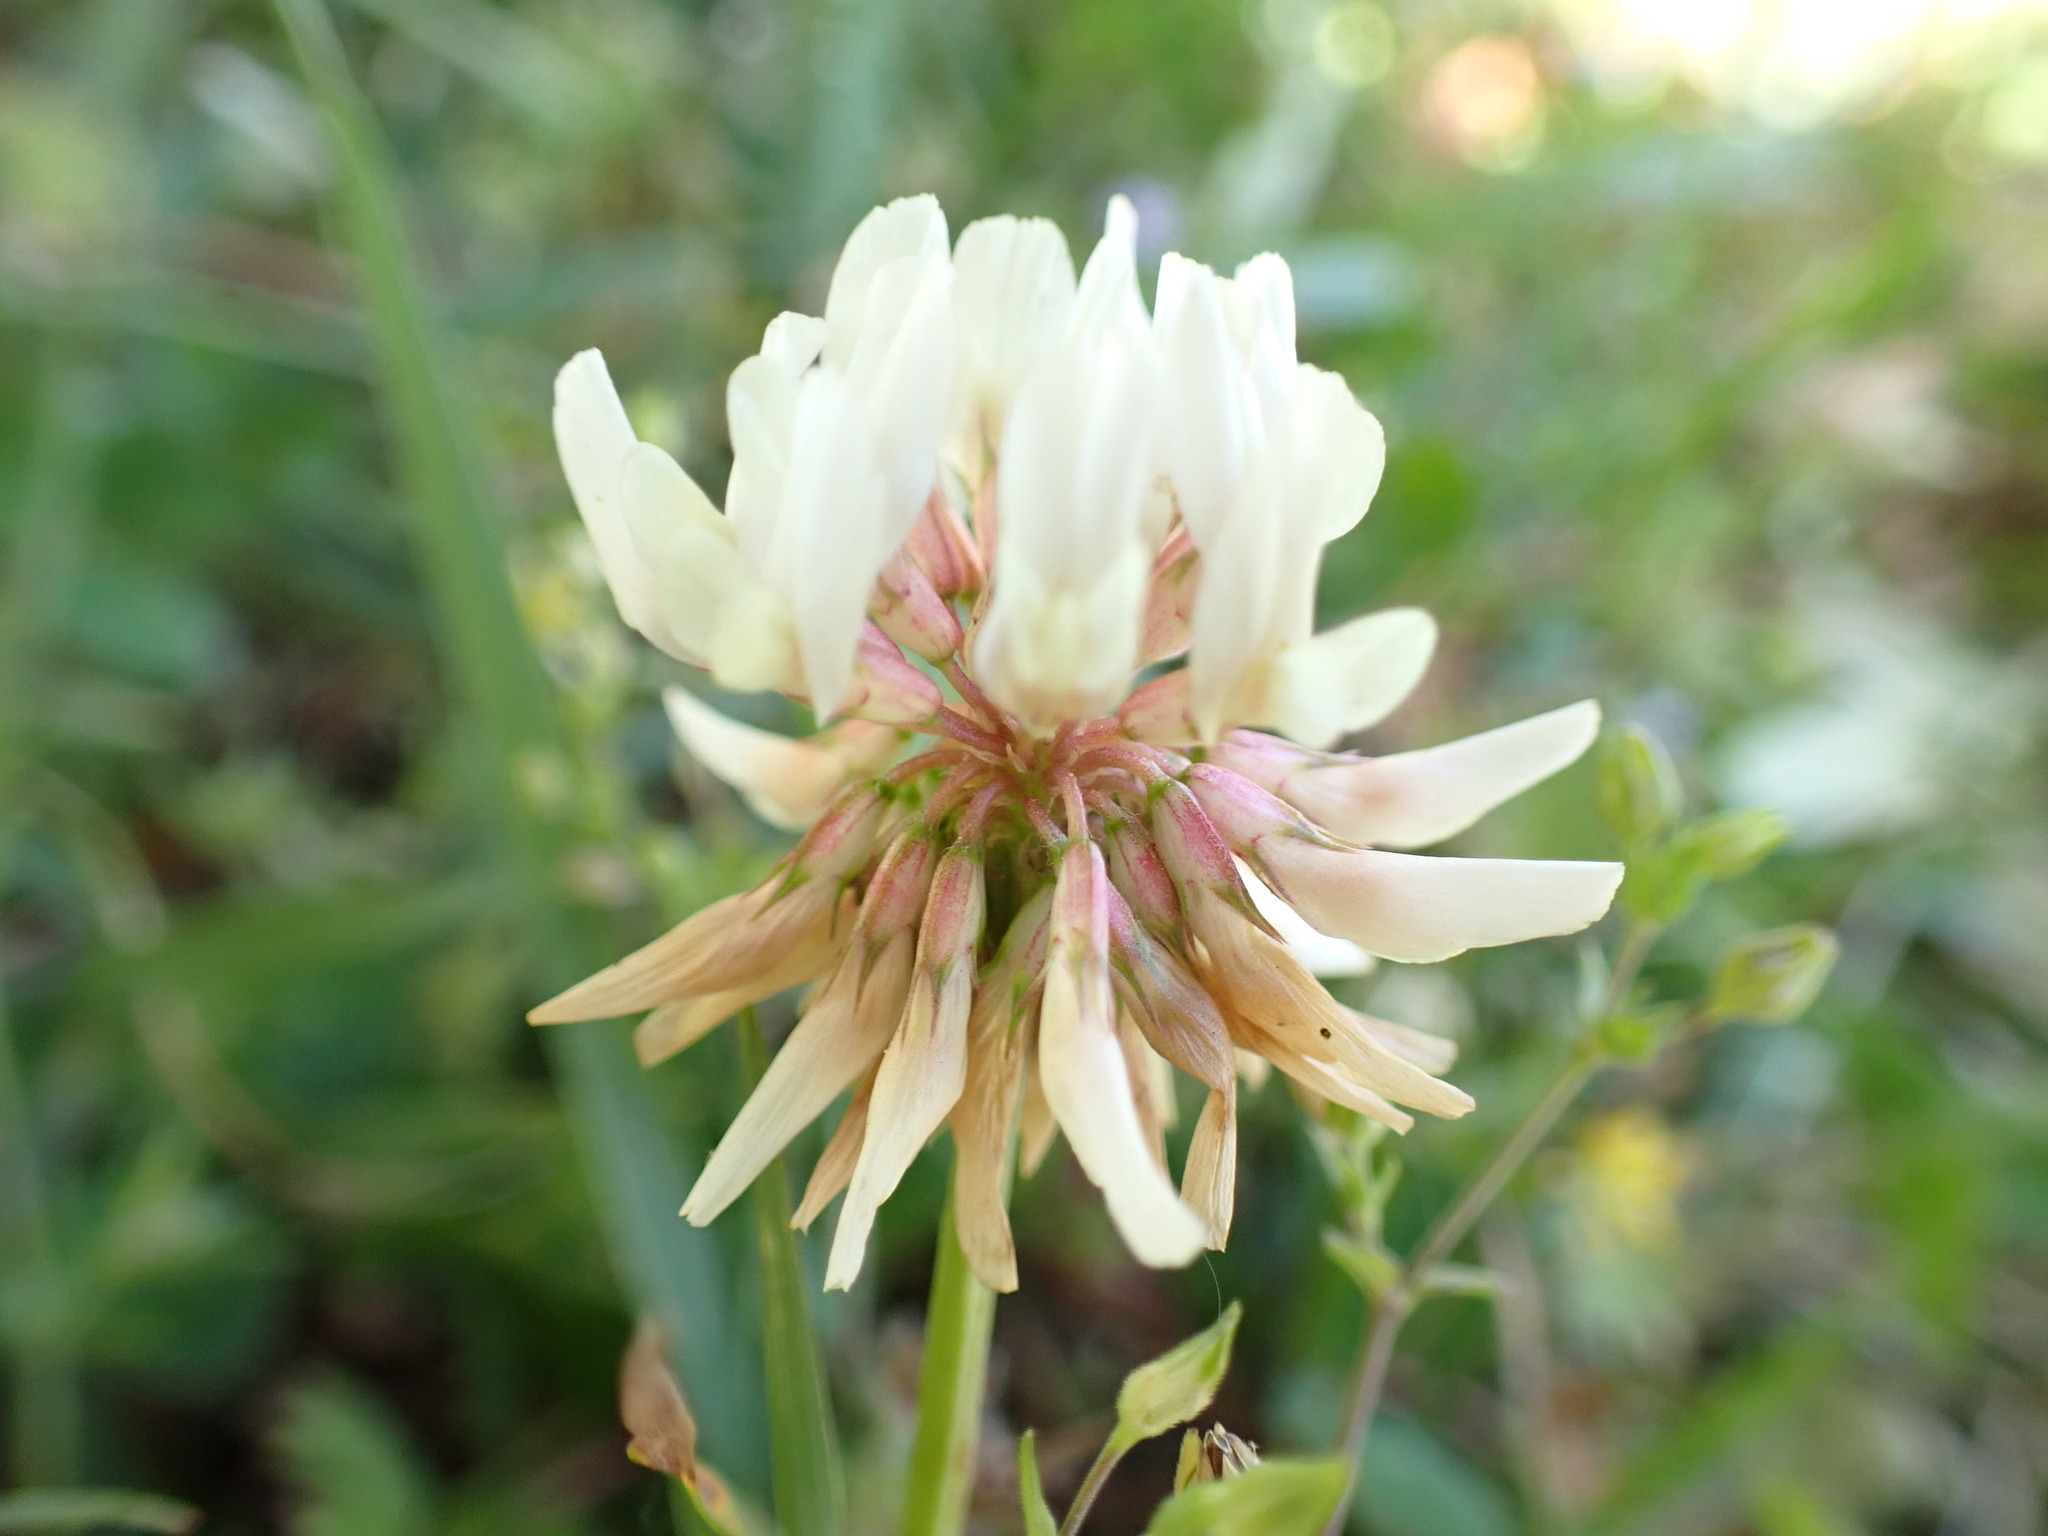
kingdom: Plantae
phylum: Tracheophyta
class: Magnoliopsida
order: Fabales
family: Fabaceae
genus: Trifolium
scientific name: Trifolium repens
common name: White clover
